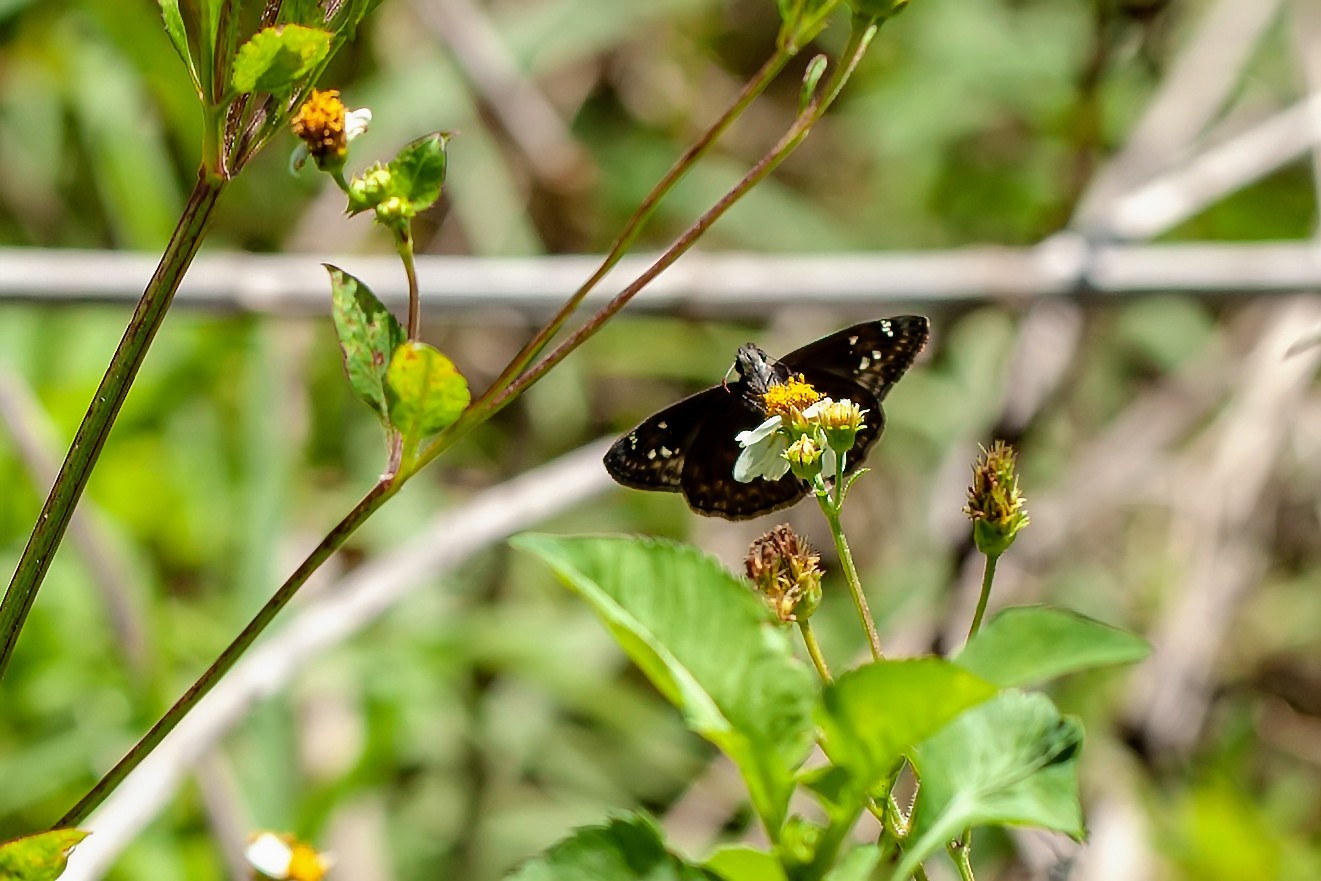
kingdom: Animalia
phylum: Arthropoda
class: Insecta
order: Lepidoptera
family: Hesperiidae
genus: Erynnis
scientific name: Erynnis horatius
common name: Horace's duskywing
